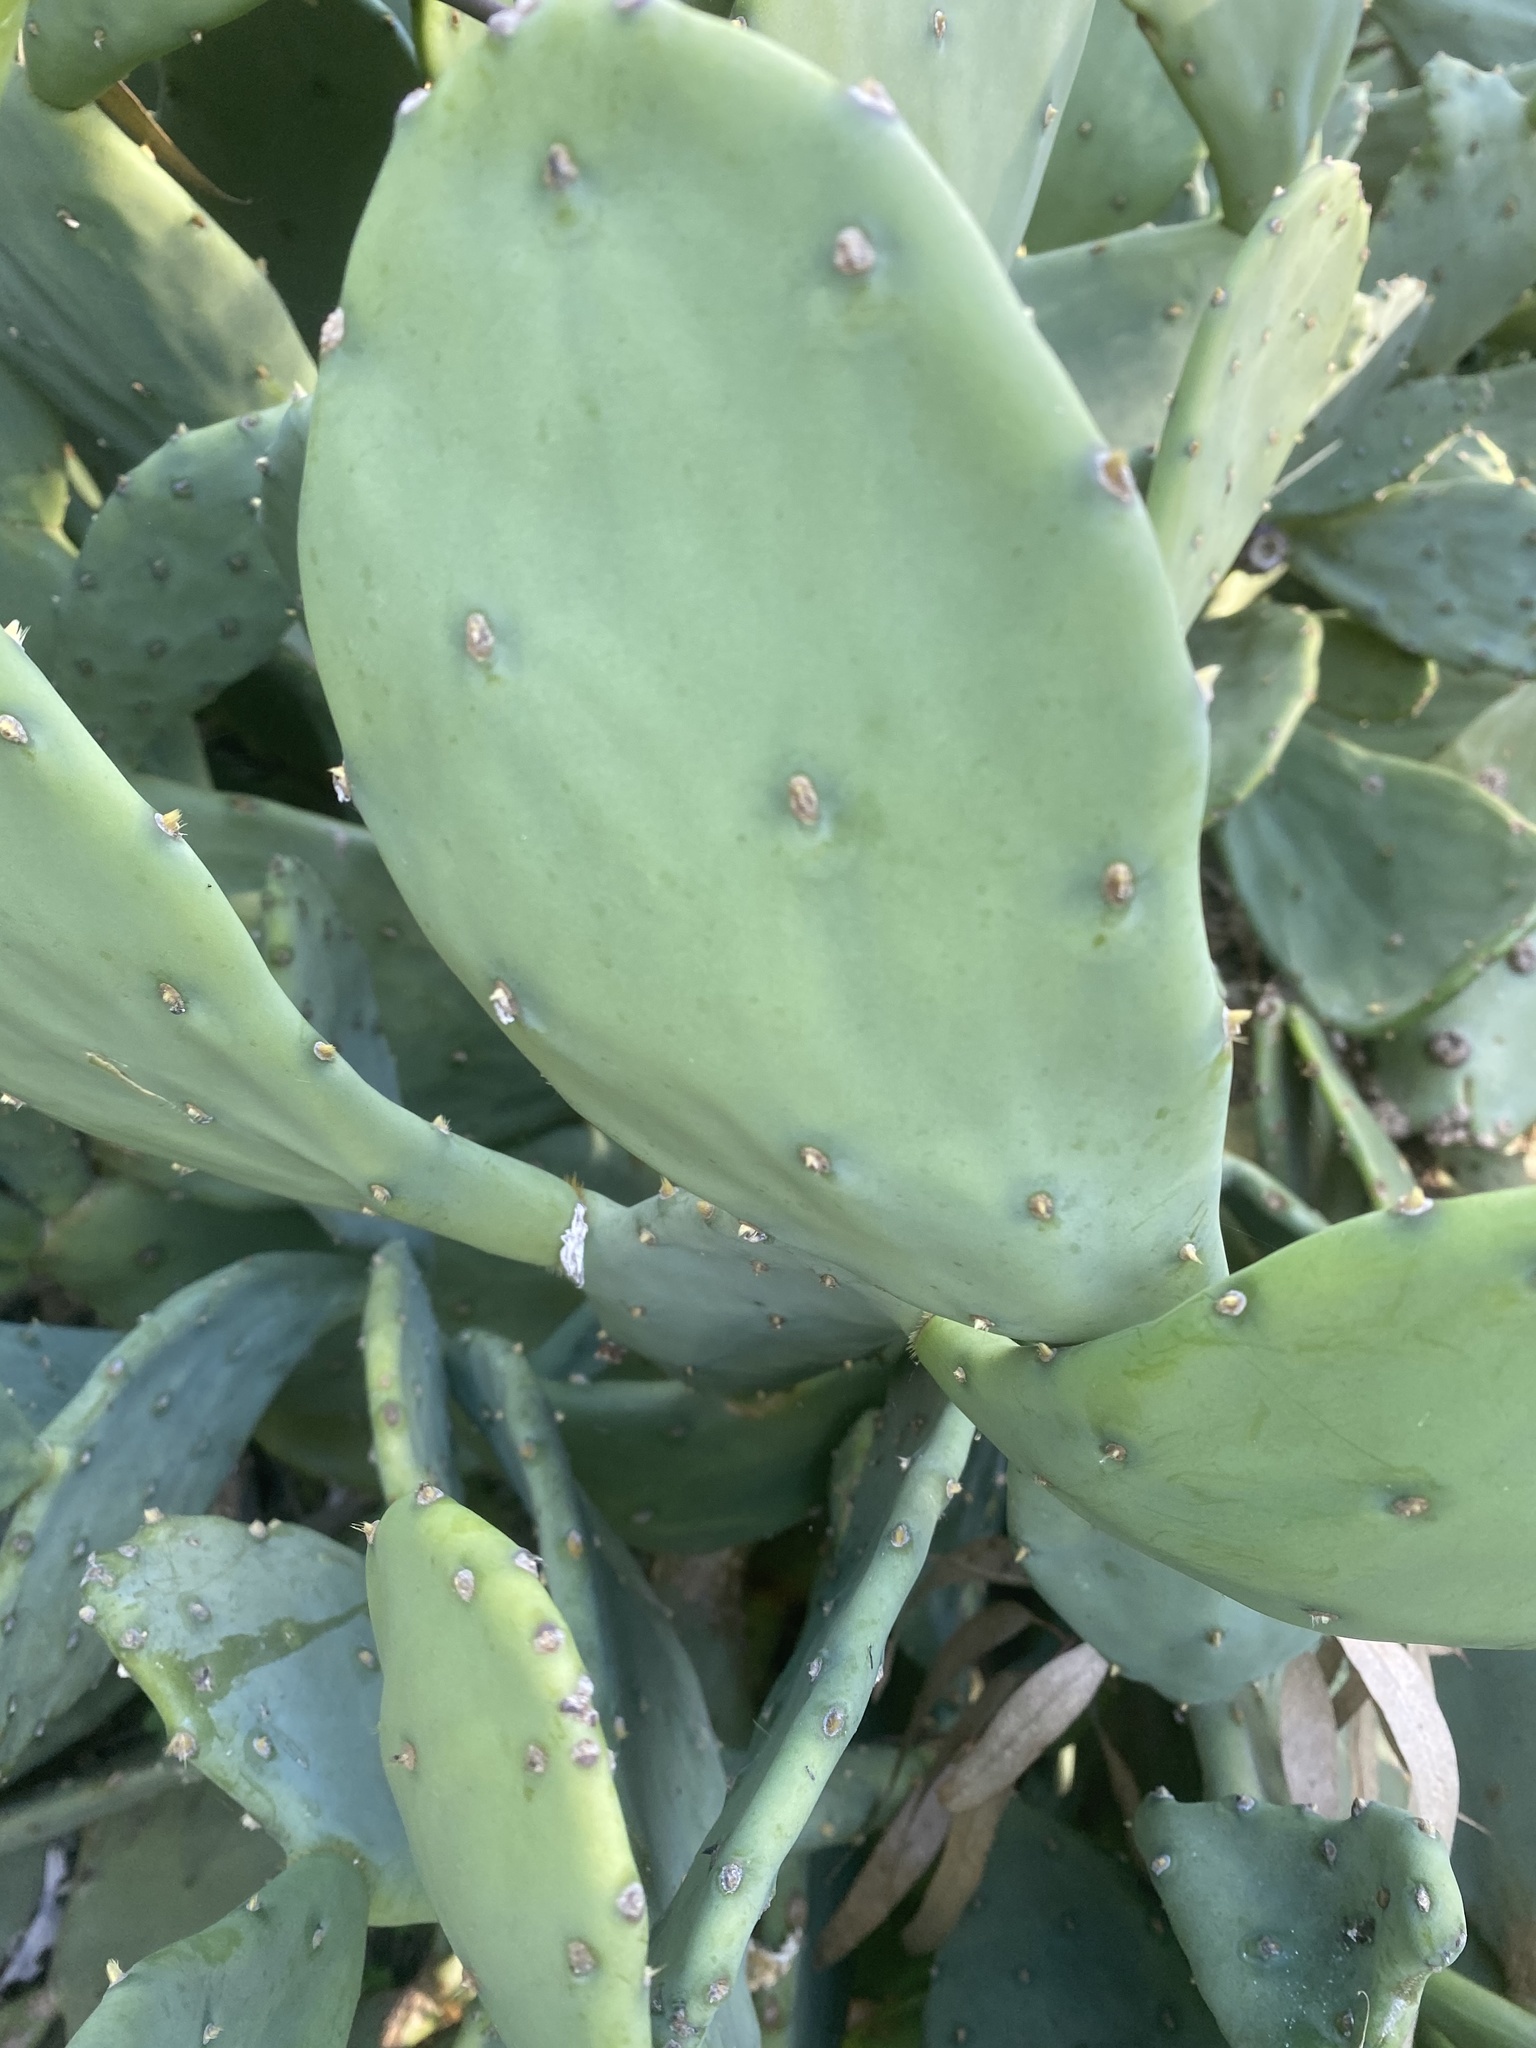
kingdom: Plantae
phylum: Tracheophyta
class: Magnoliopsida
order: Caryophyllales
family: Cactaceae
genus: Opuntia
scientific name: Opuntia stricta
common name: Erect pricklypear
